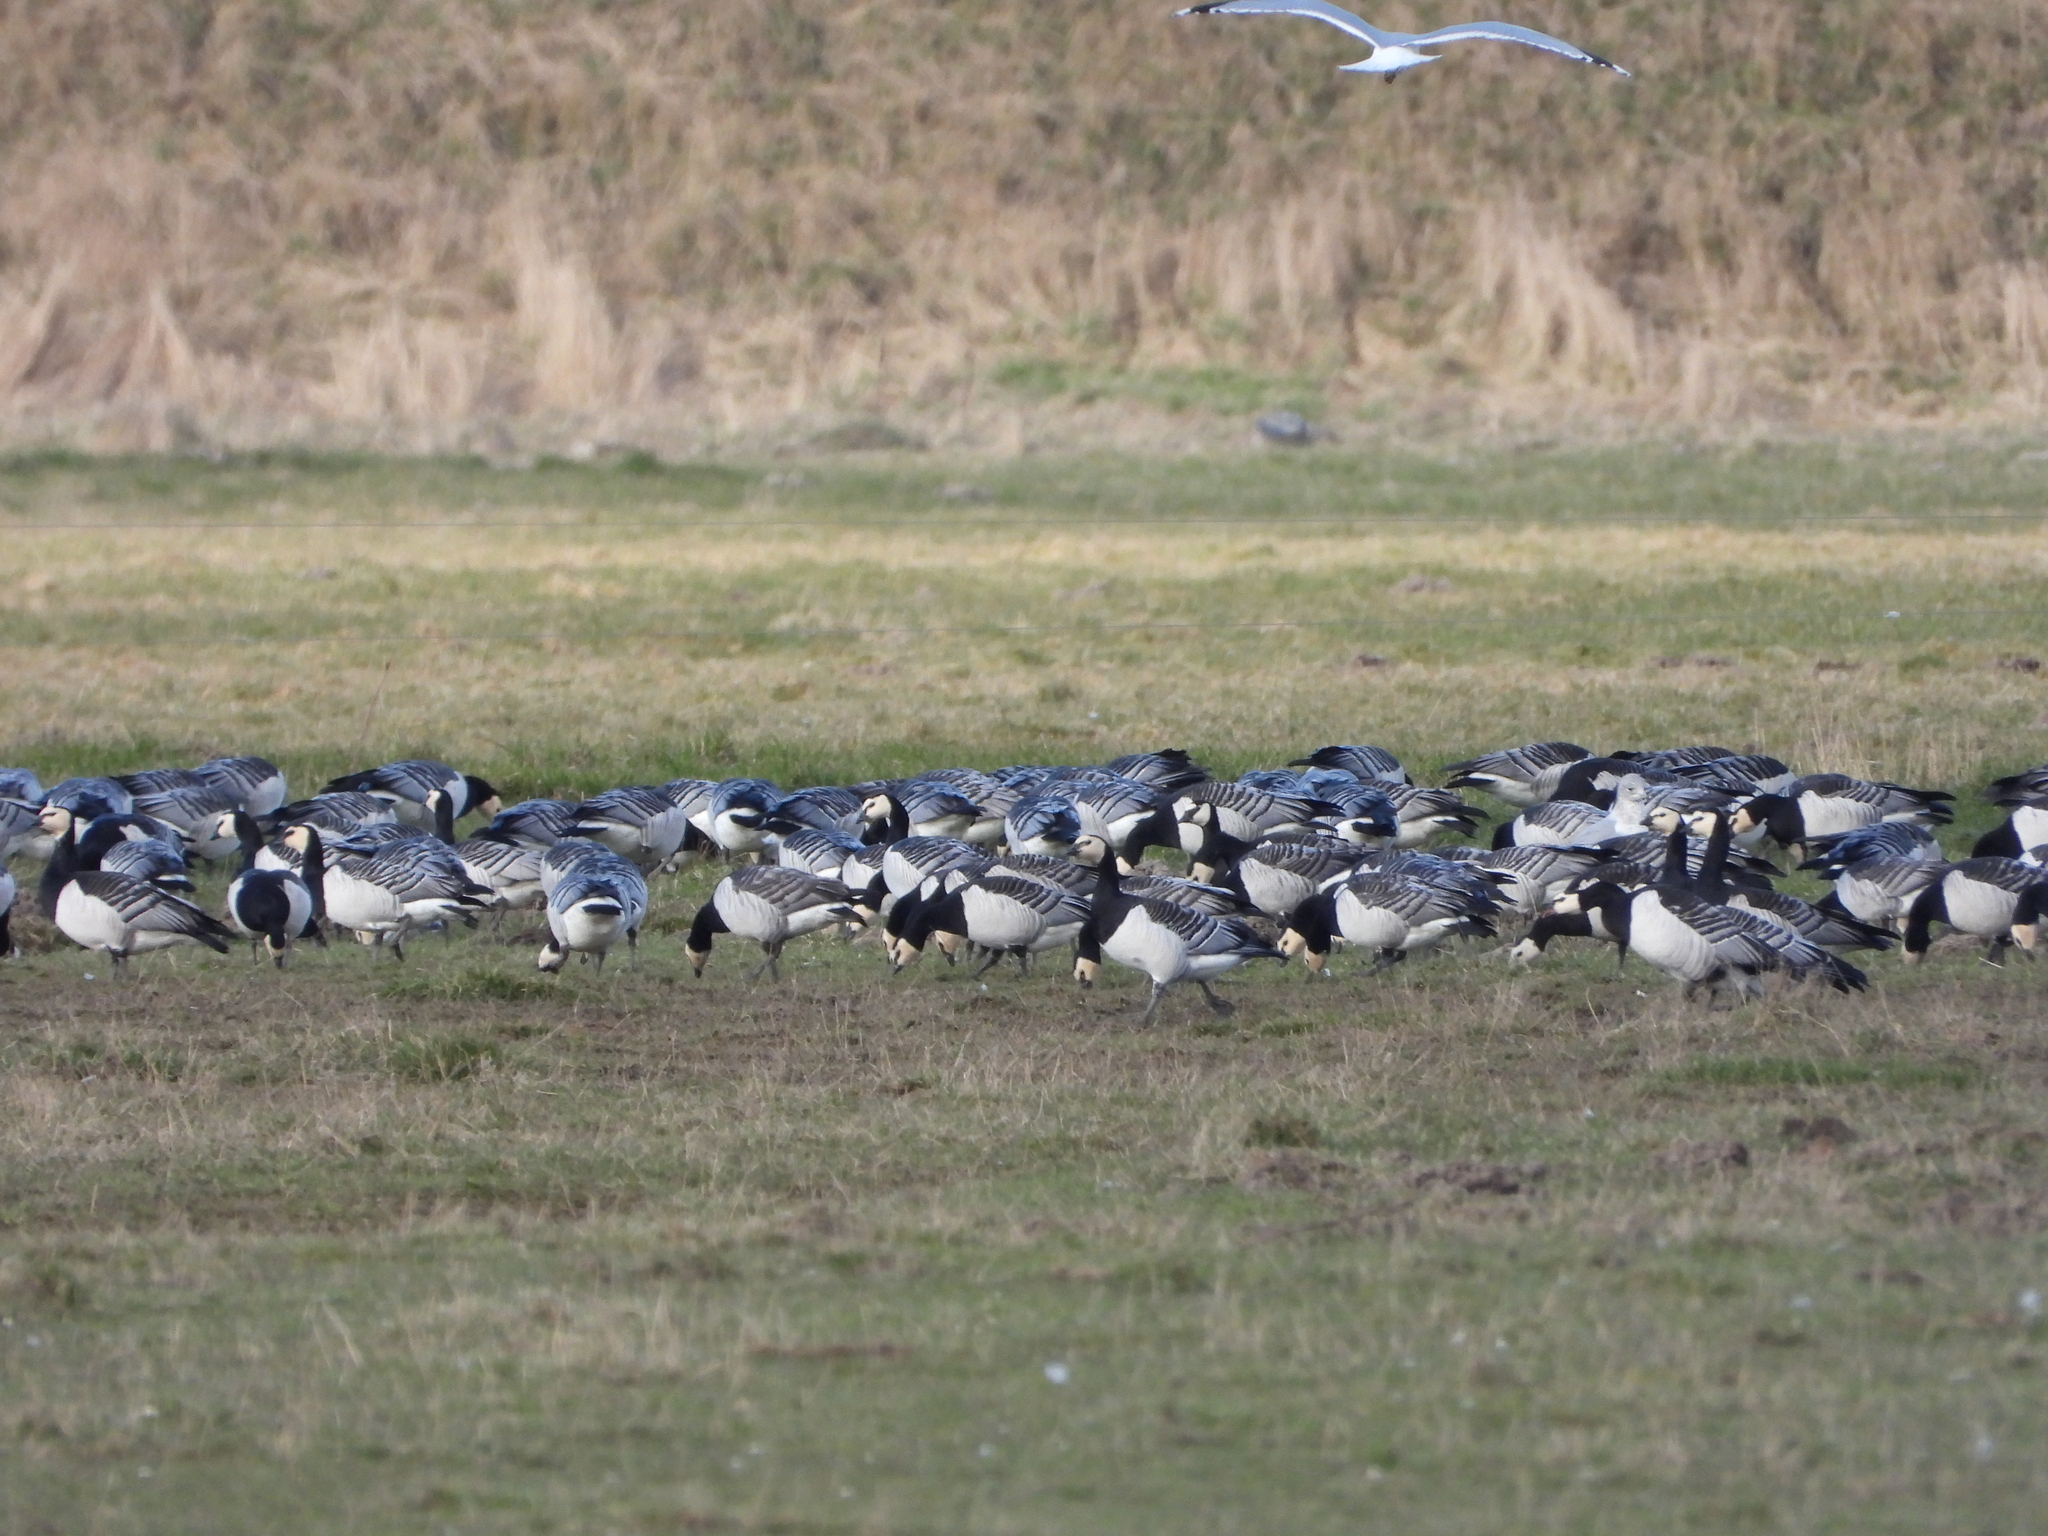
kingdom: Animalia
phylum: Chordata
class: Aves
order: Anseriformes
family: Anatidae
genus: Branta
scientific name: Branta leucopsis
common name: Barnacle goose
